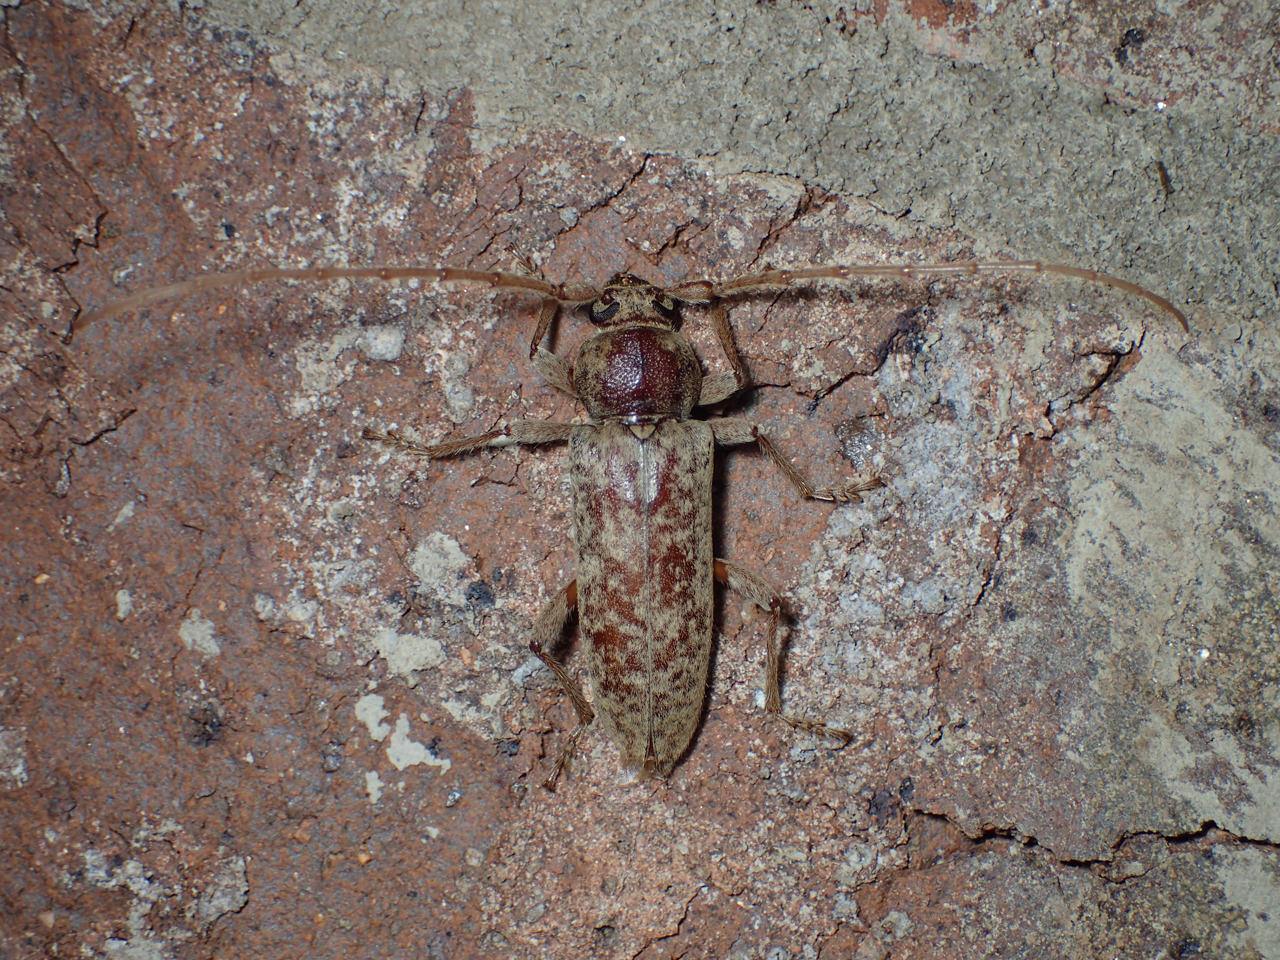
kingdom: Animalia
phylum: Arthropoda
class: Insecta
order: Coleoptera
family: Cerambycidae
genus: Enaphalodes
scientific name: Enaphalodes rufulus
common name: Red oak borer
